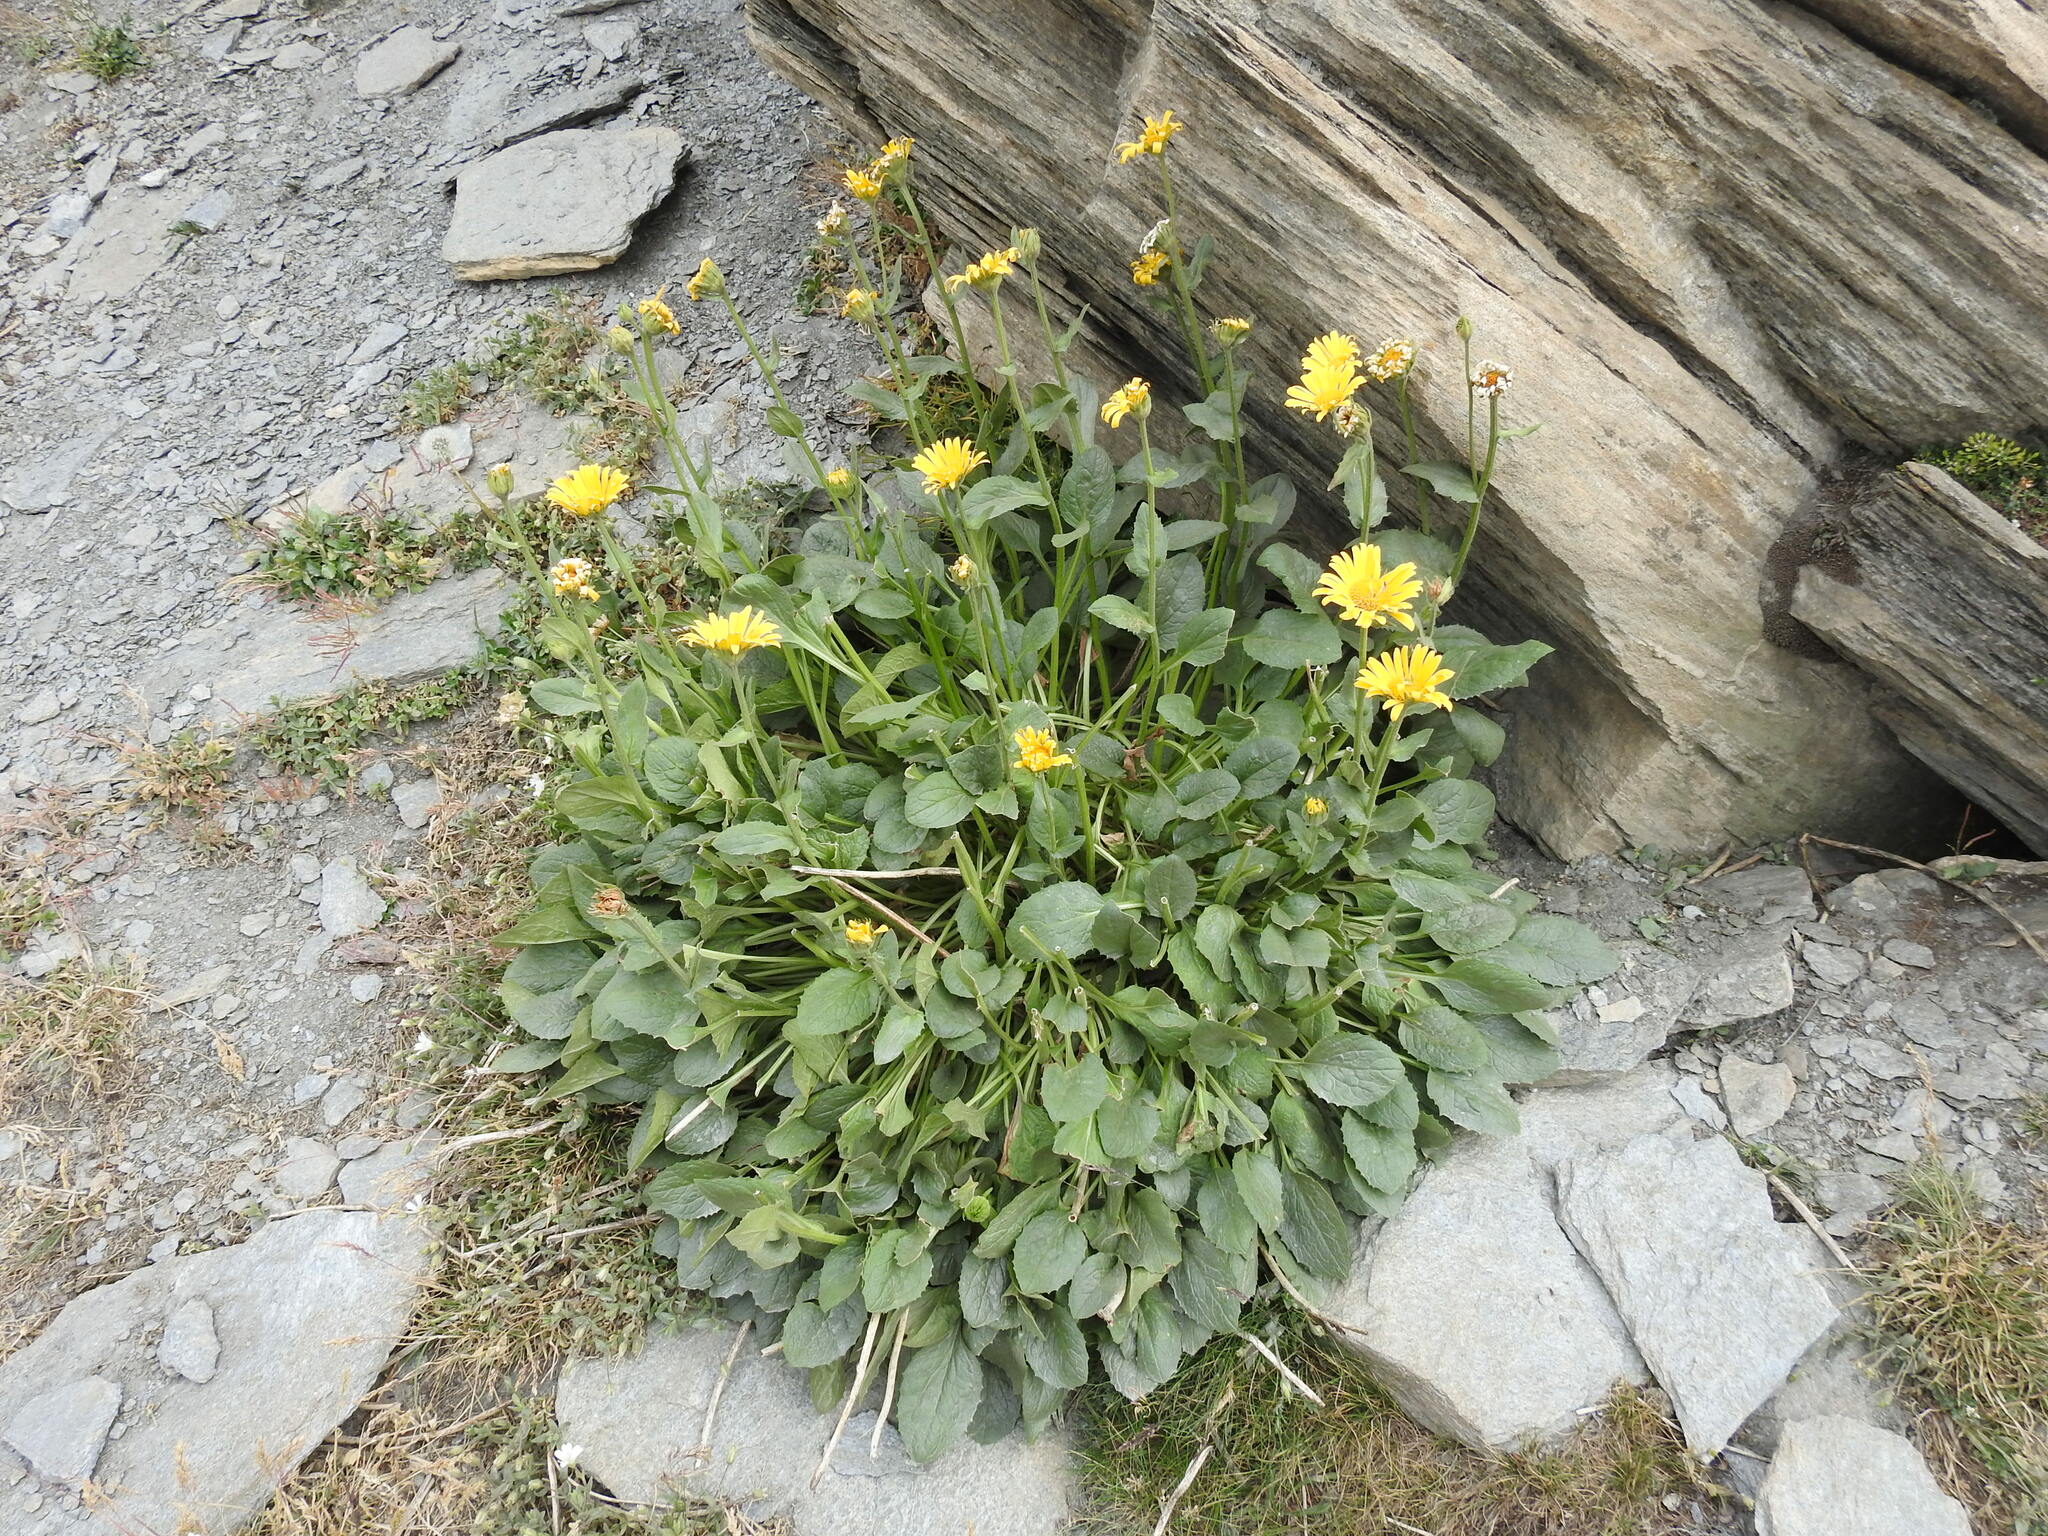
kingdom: Plantae
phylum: Tracheophyta
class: Magnoliopsida
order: Asterales
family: Asteraceae
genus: Doronicum
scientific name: Doronicum grandiflorum
